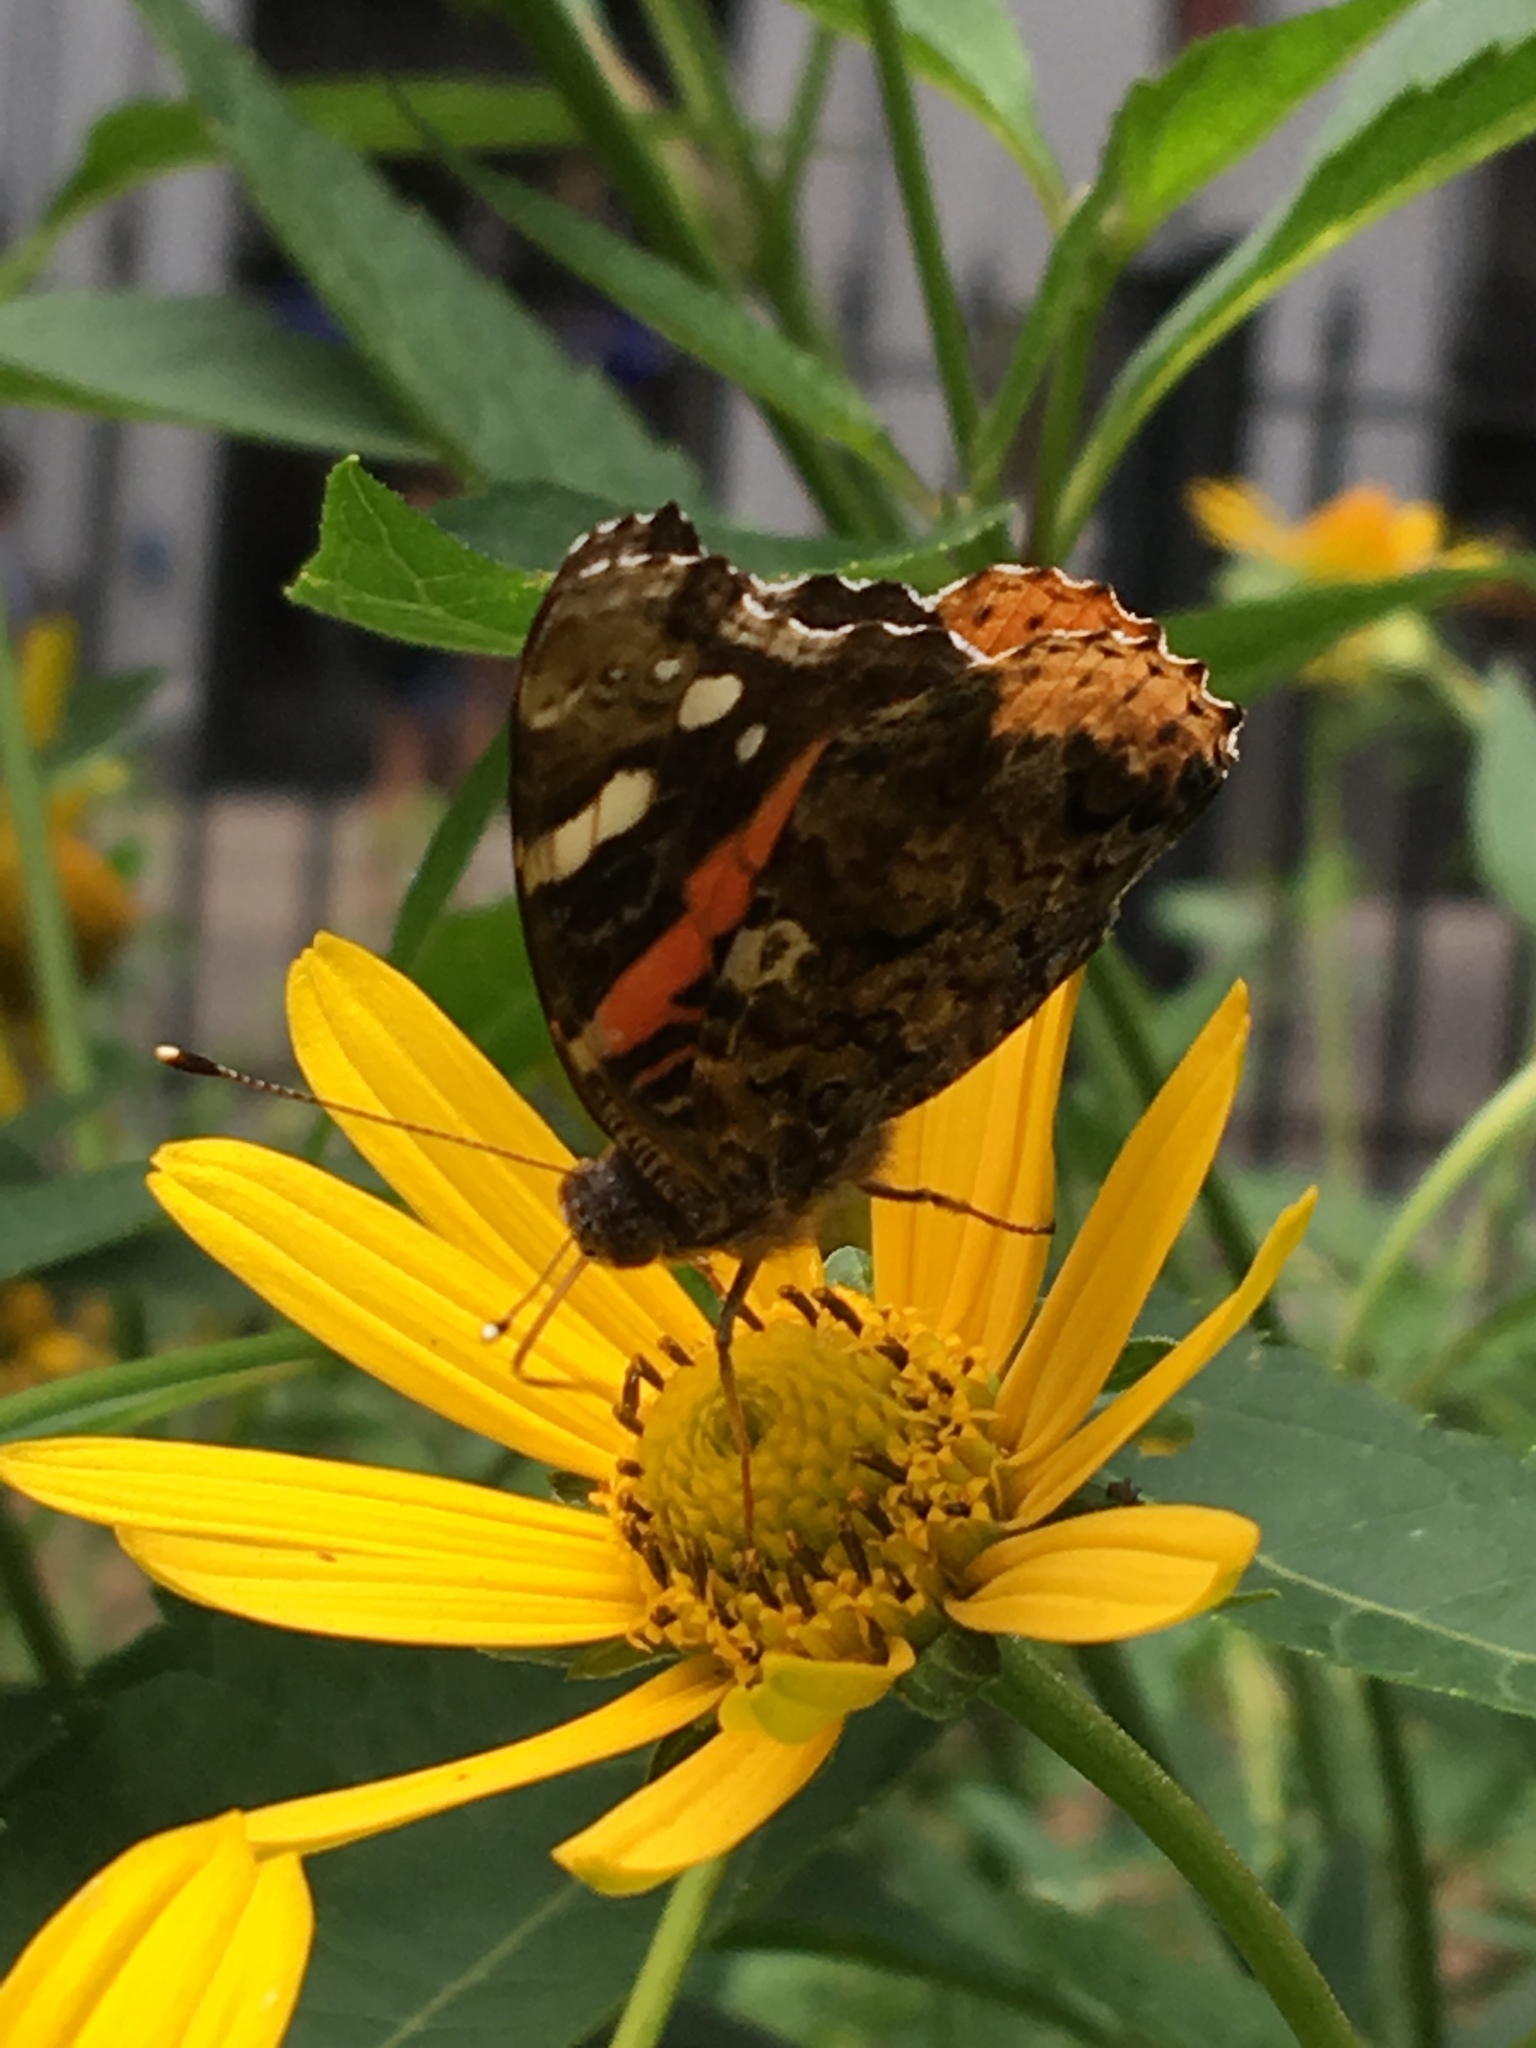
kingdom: Animalia
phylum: Arthropoda
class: Insecta
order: Lepidoptera
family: Nymphalidae
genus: Vanessa
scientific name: Vanessa atalanta
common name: Red admiral
